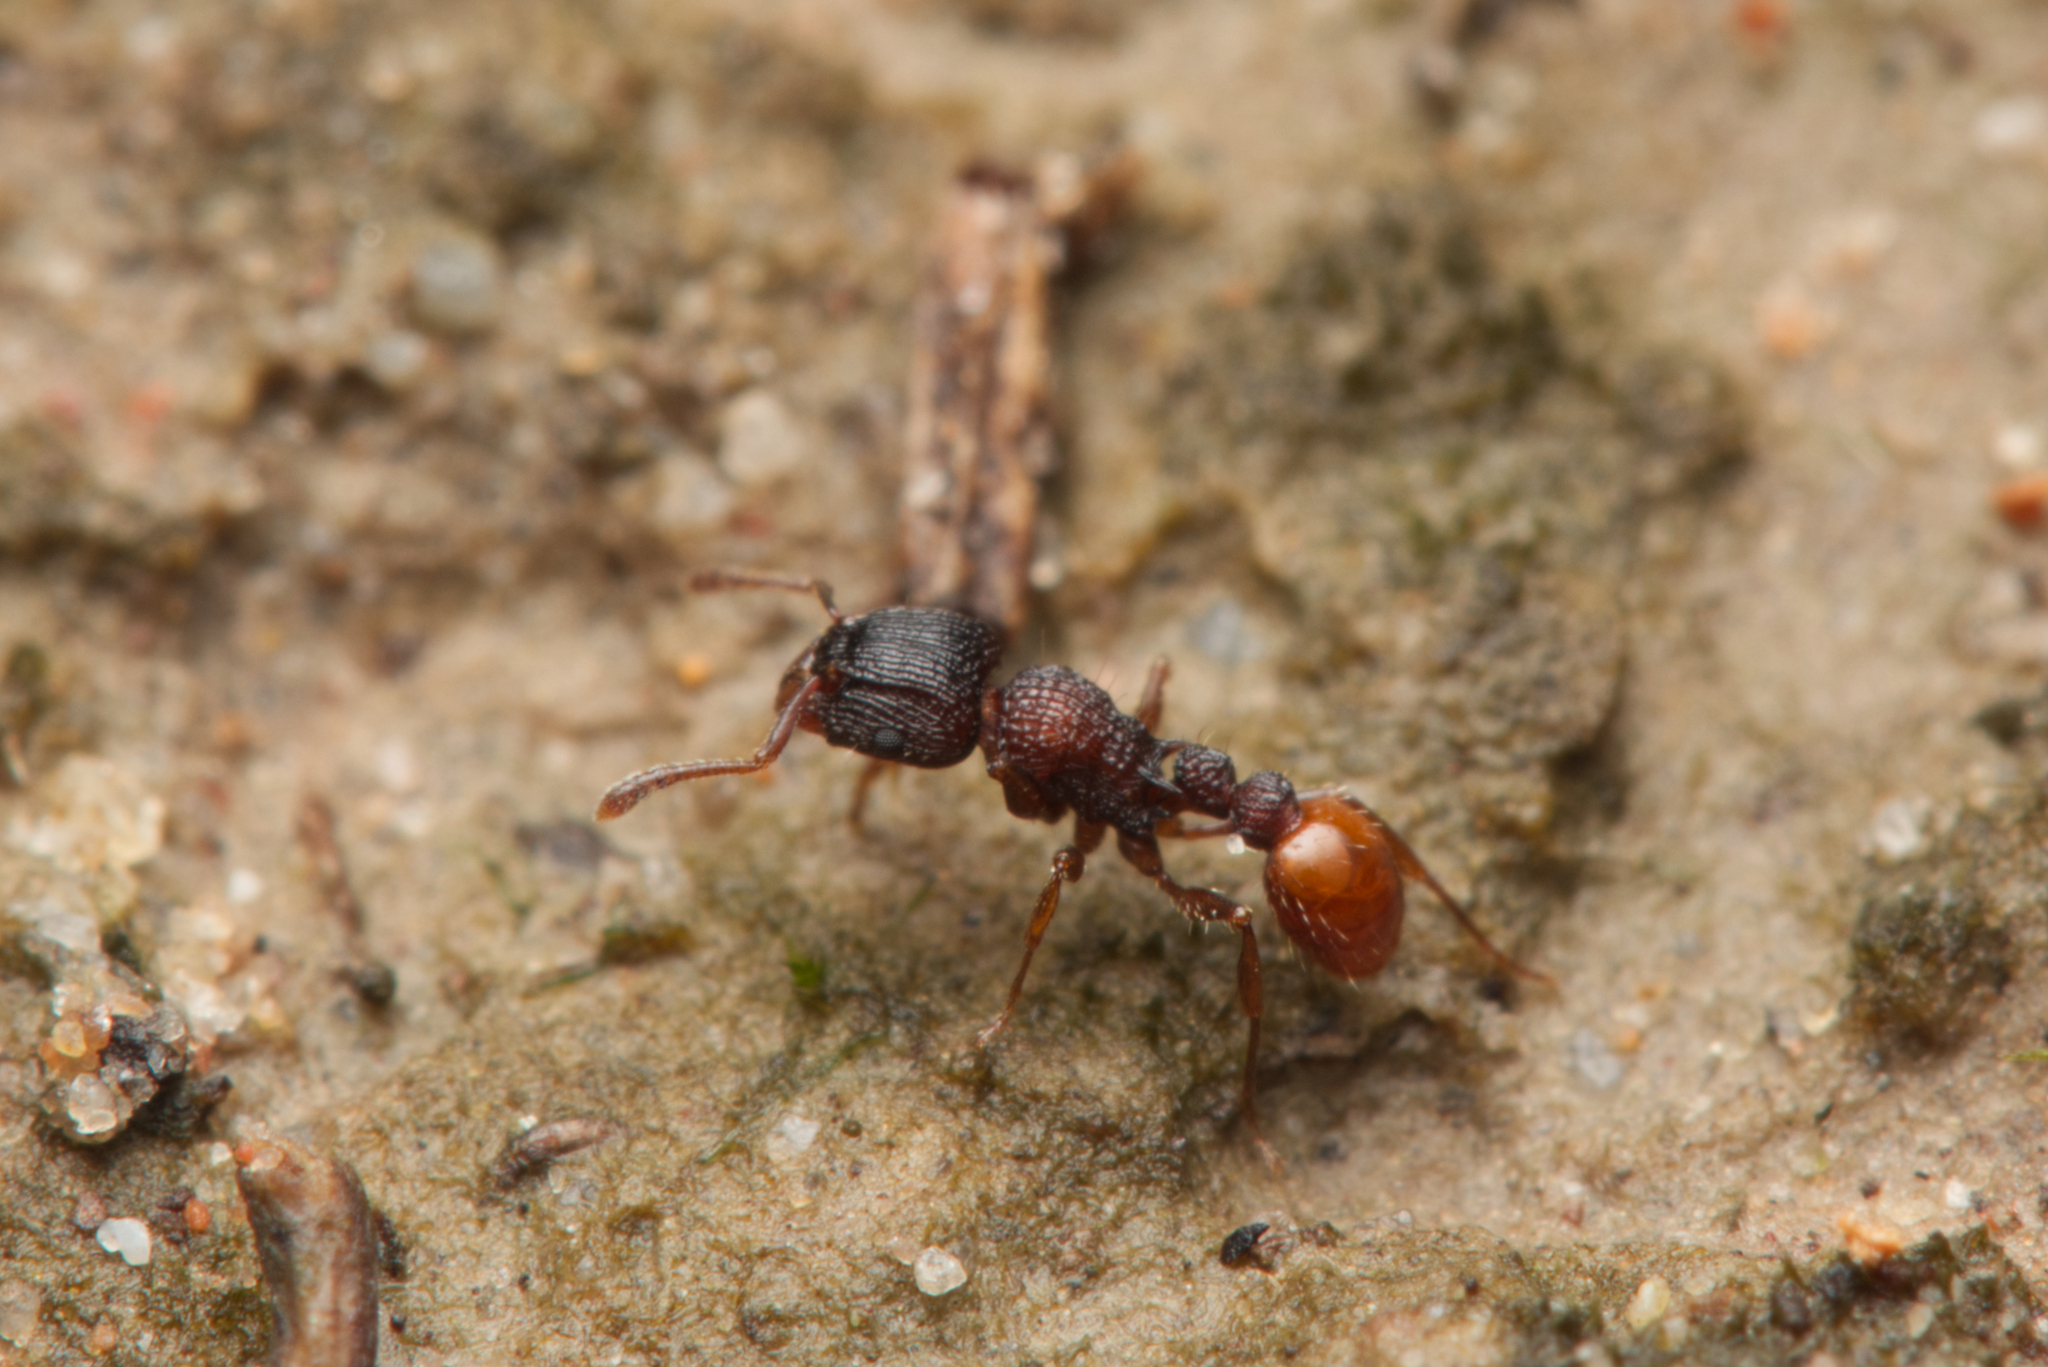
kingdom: Animalia
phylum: Arthropoda
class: Insecta
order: Hymenoptera
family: Formicidae
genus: Tetramorium
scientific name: Tetramorium impressum
